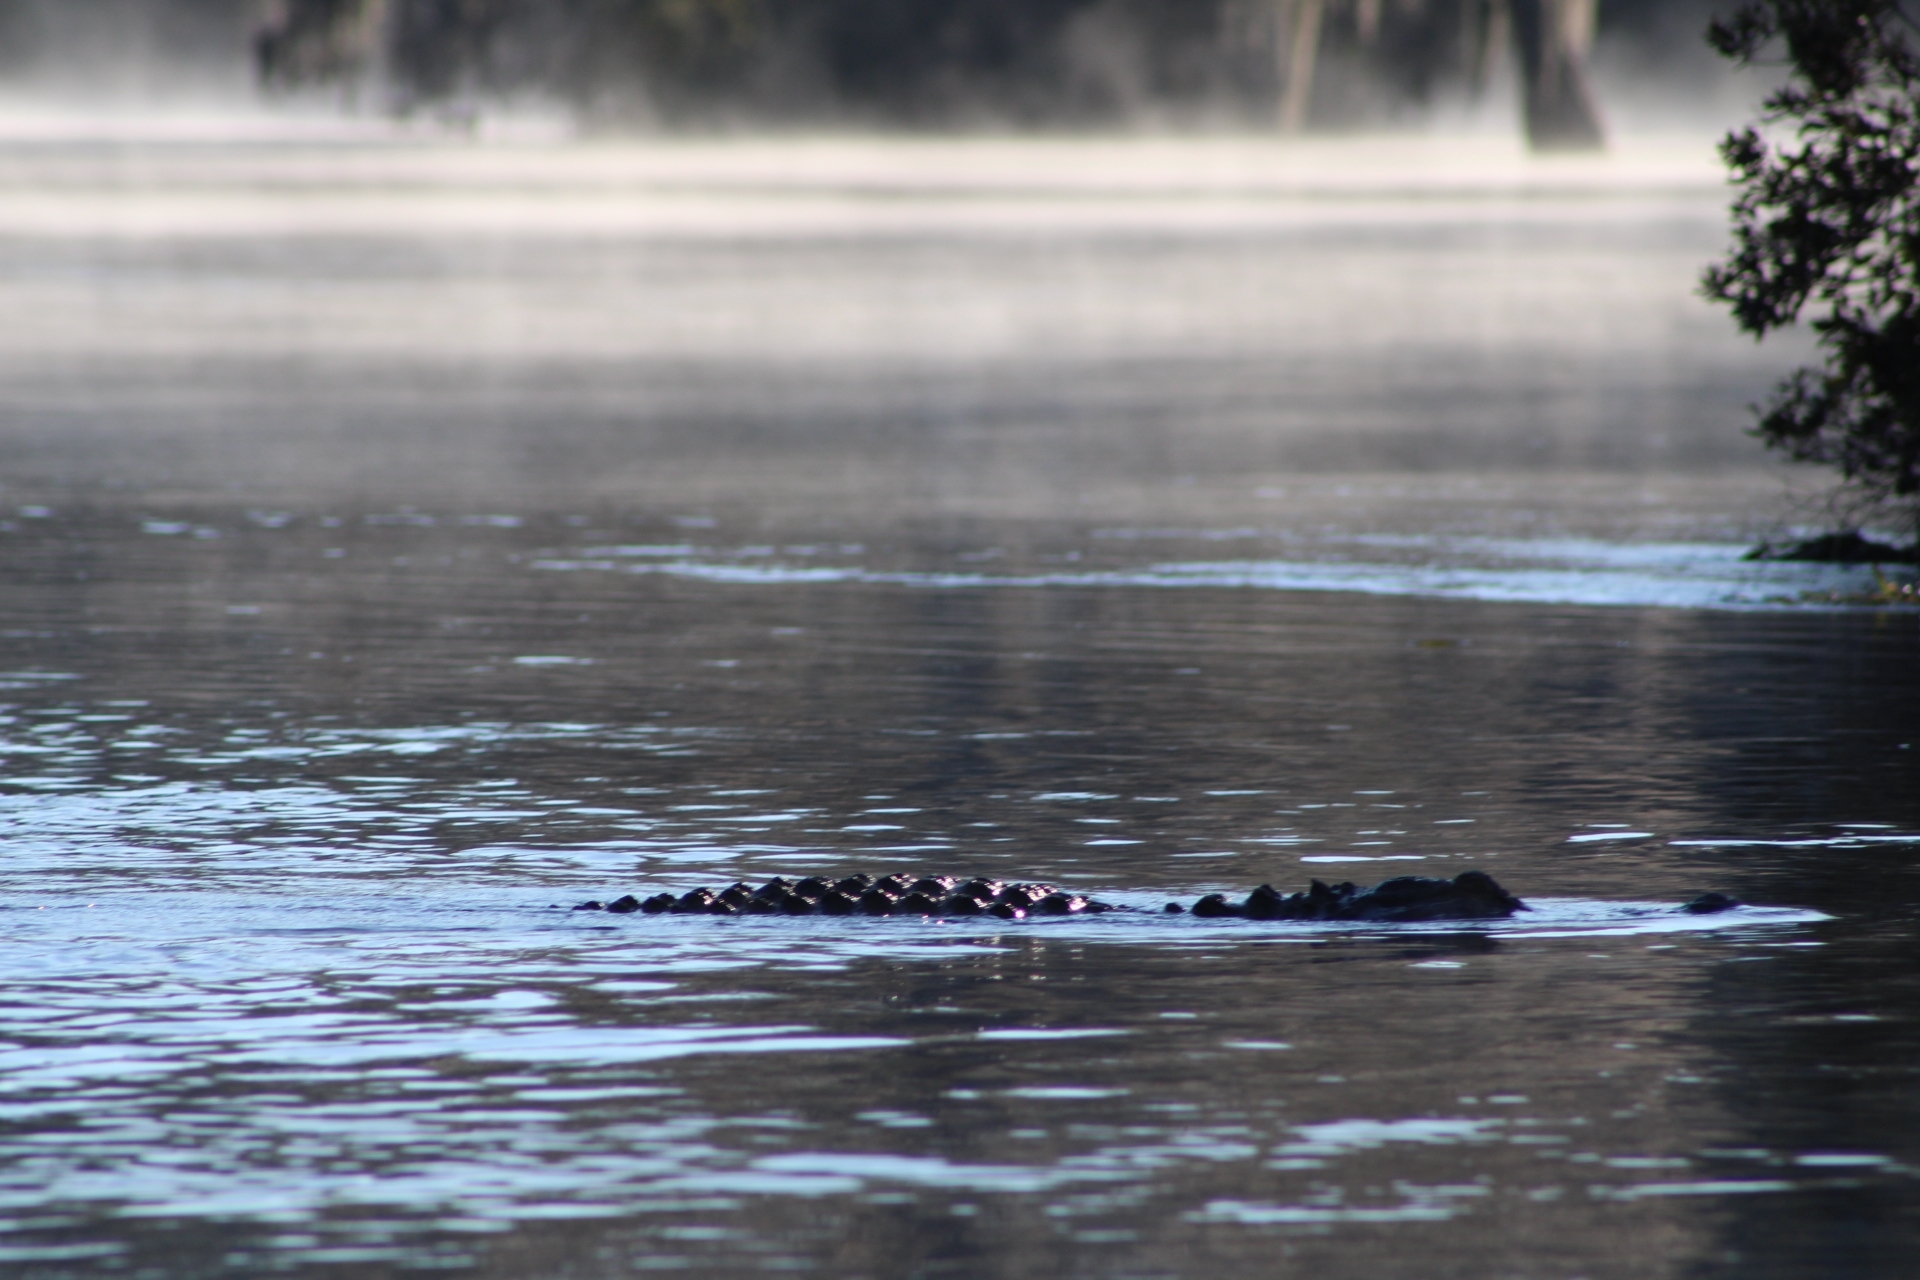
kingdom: Animalia
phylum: Chordata
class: Crocodylia
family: Alligatoridae
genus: Alligator
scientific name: Alligator mississippiensis
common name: American alligator
